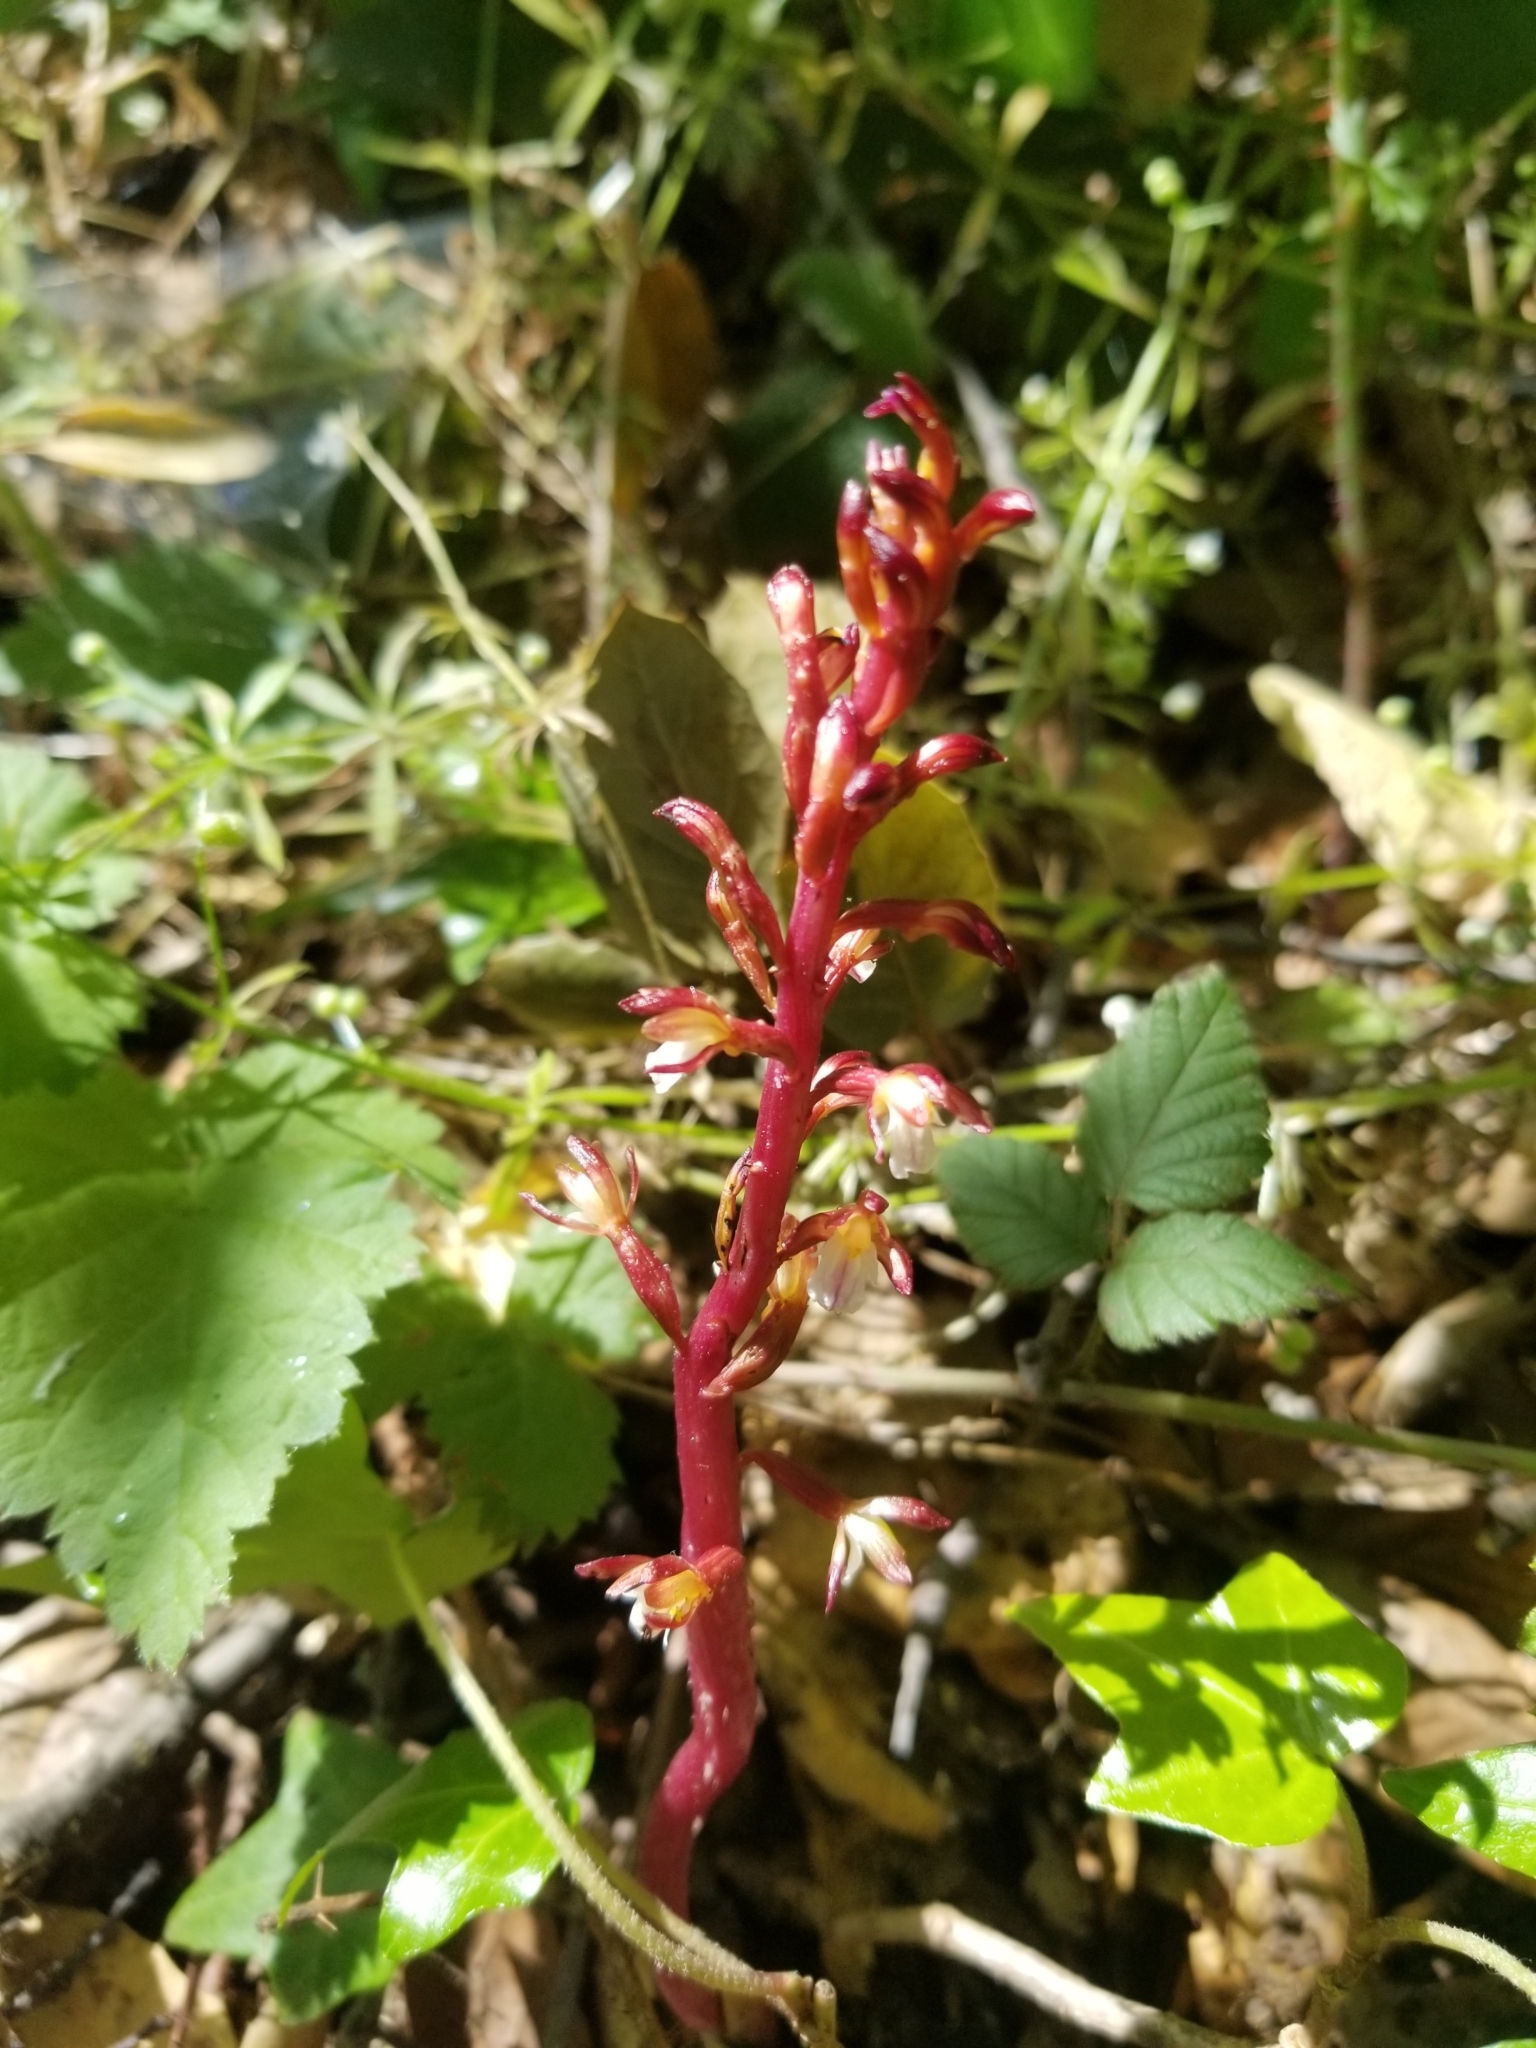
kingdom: Plantae
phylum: Tracheophyta
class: Liliopsida
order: Asparagales
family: Orchidaceae
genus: Corallorhiza
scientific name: Corallorhiza maculata
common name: Spotted coralroot
